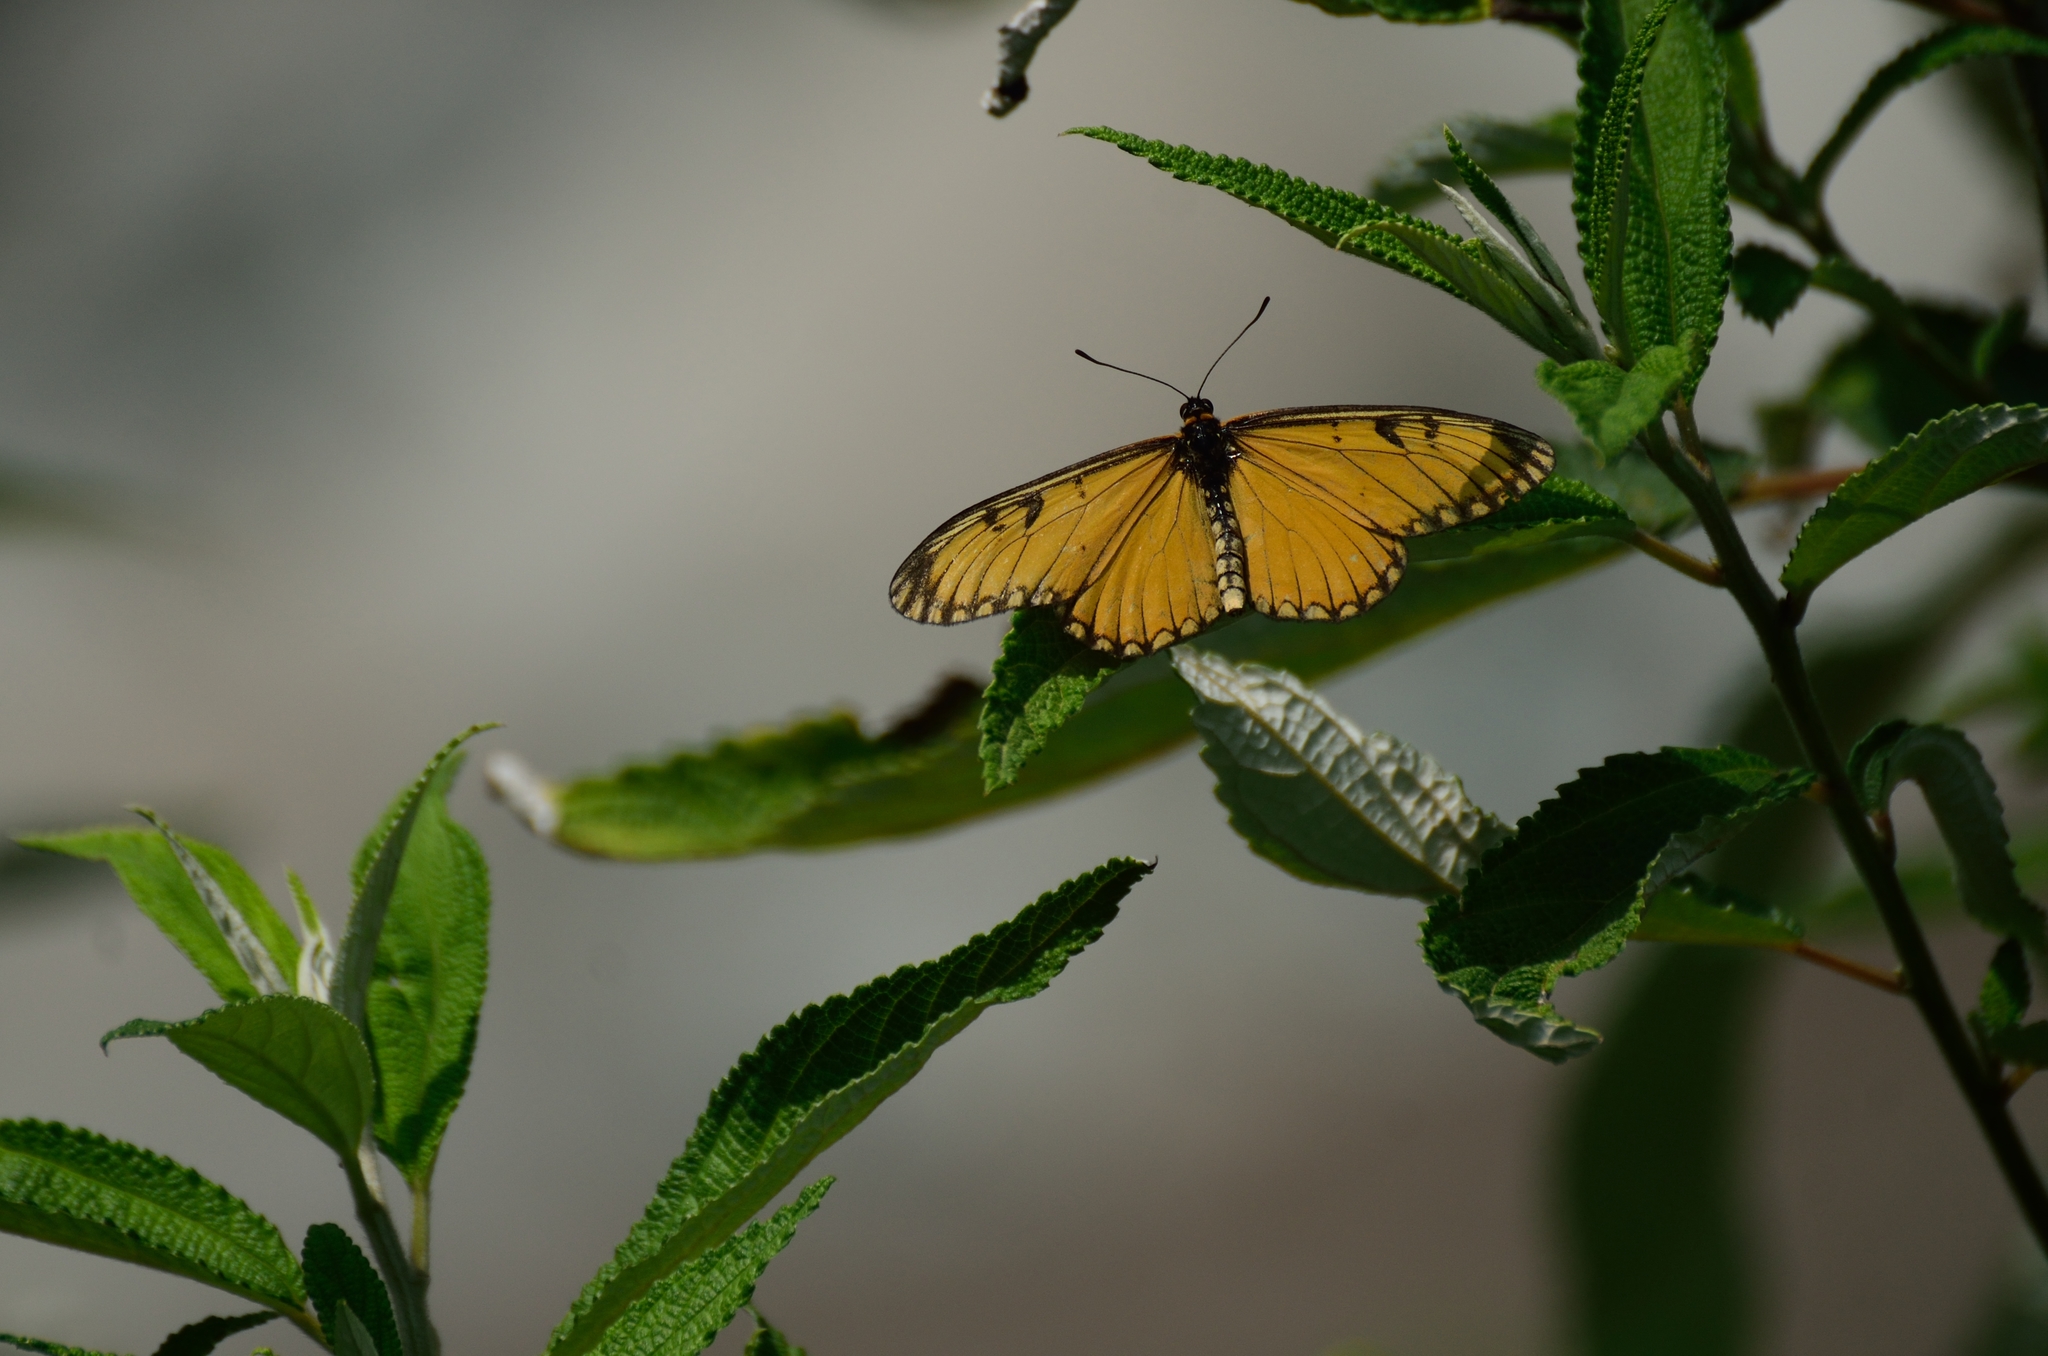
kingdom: Animalia
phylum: Arthropoda
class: Insecta
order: Lepidoptera
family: Nymphalidae
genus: Acraea
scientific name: Acraea Telchinia issoria
